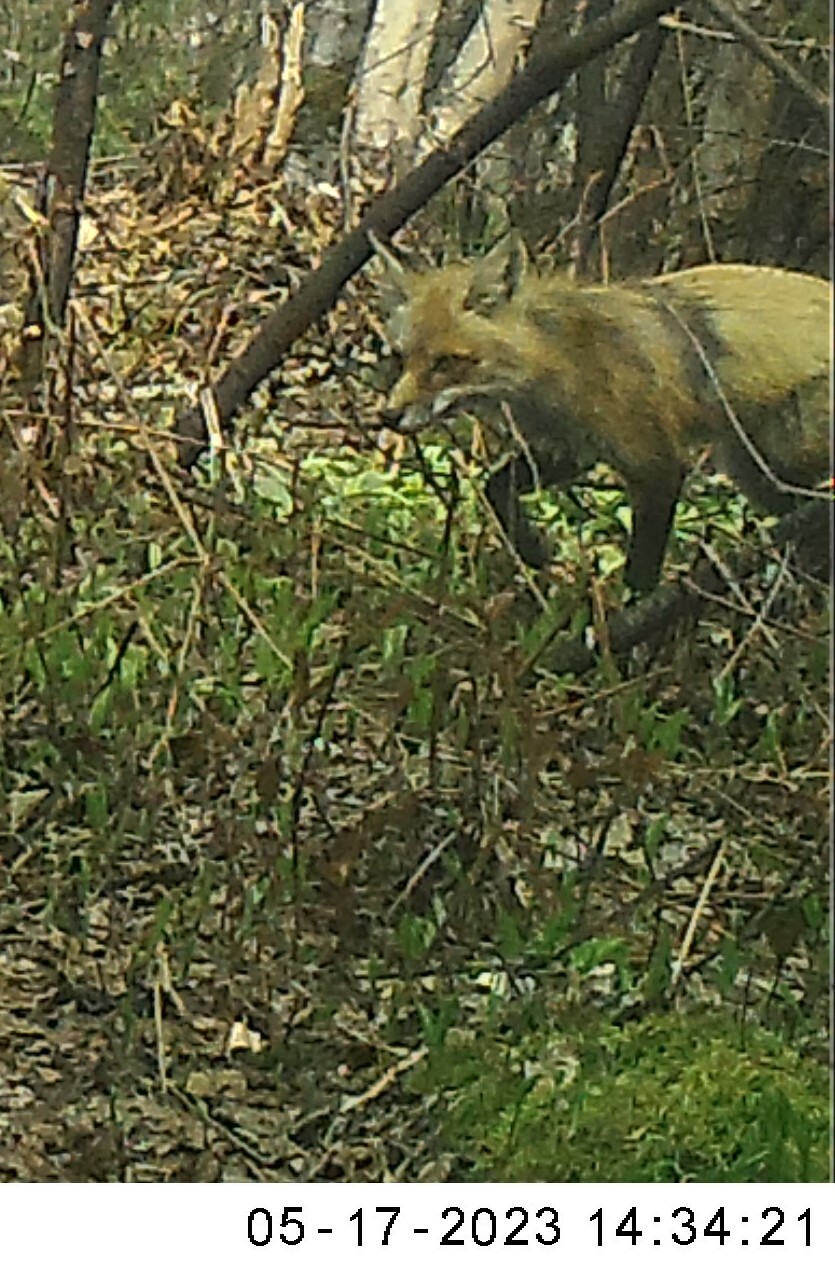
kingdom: Animalia
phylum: Chordata
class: Mammalia
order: Carnivora
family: Canidae
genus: Vulpes
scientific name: Vulpes vulpes
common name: Red fox
